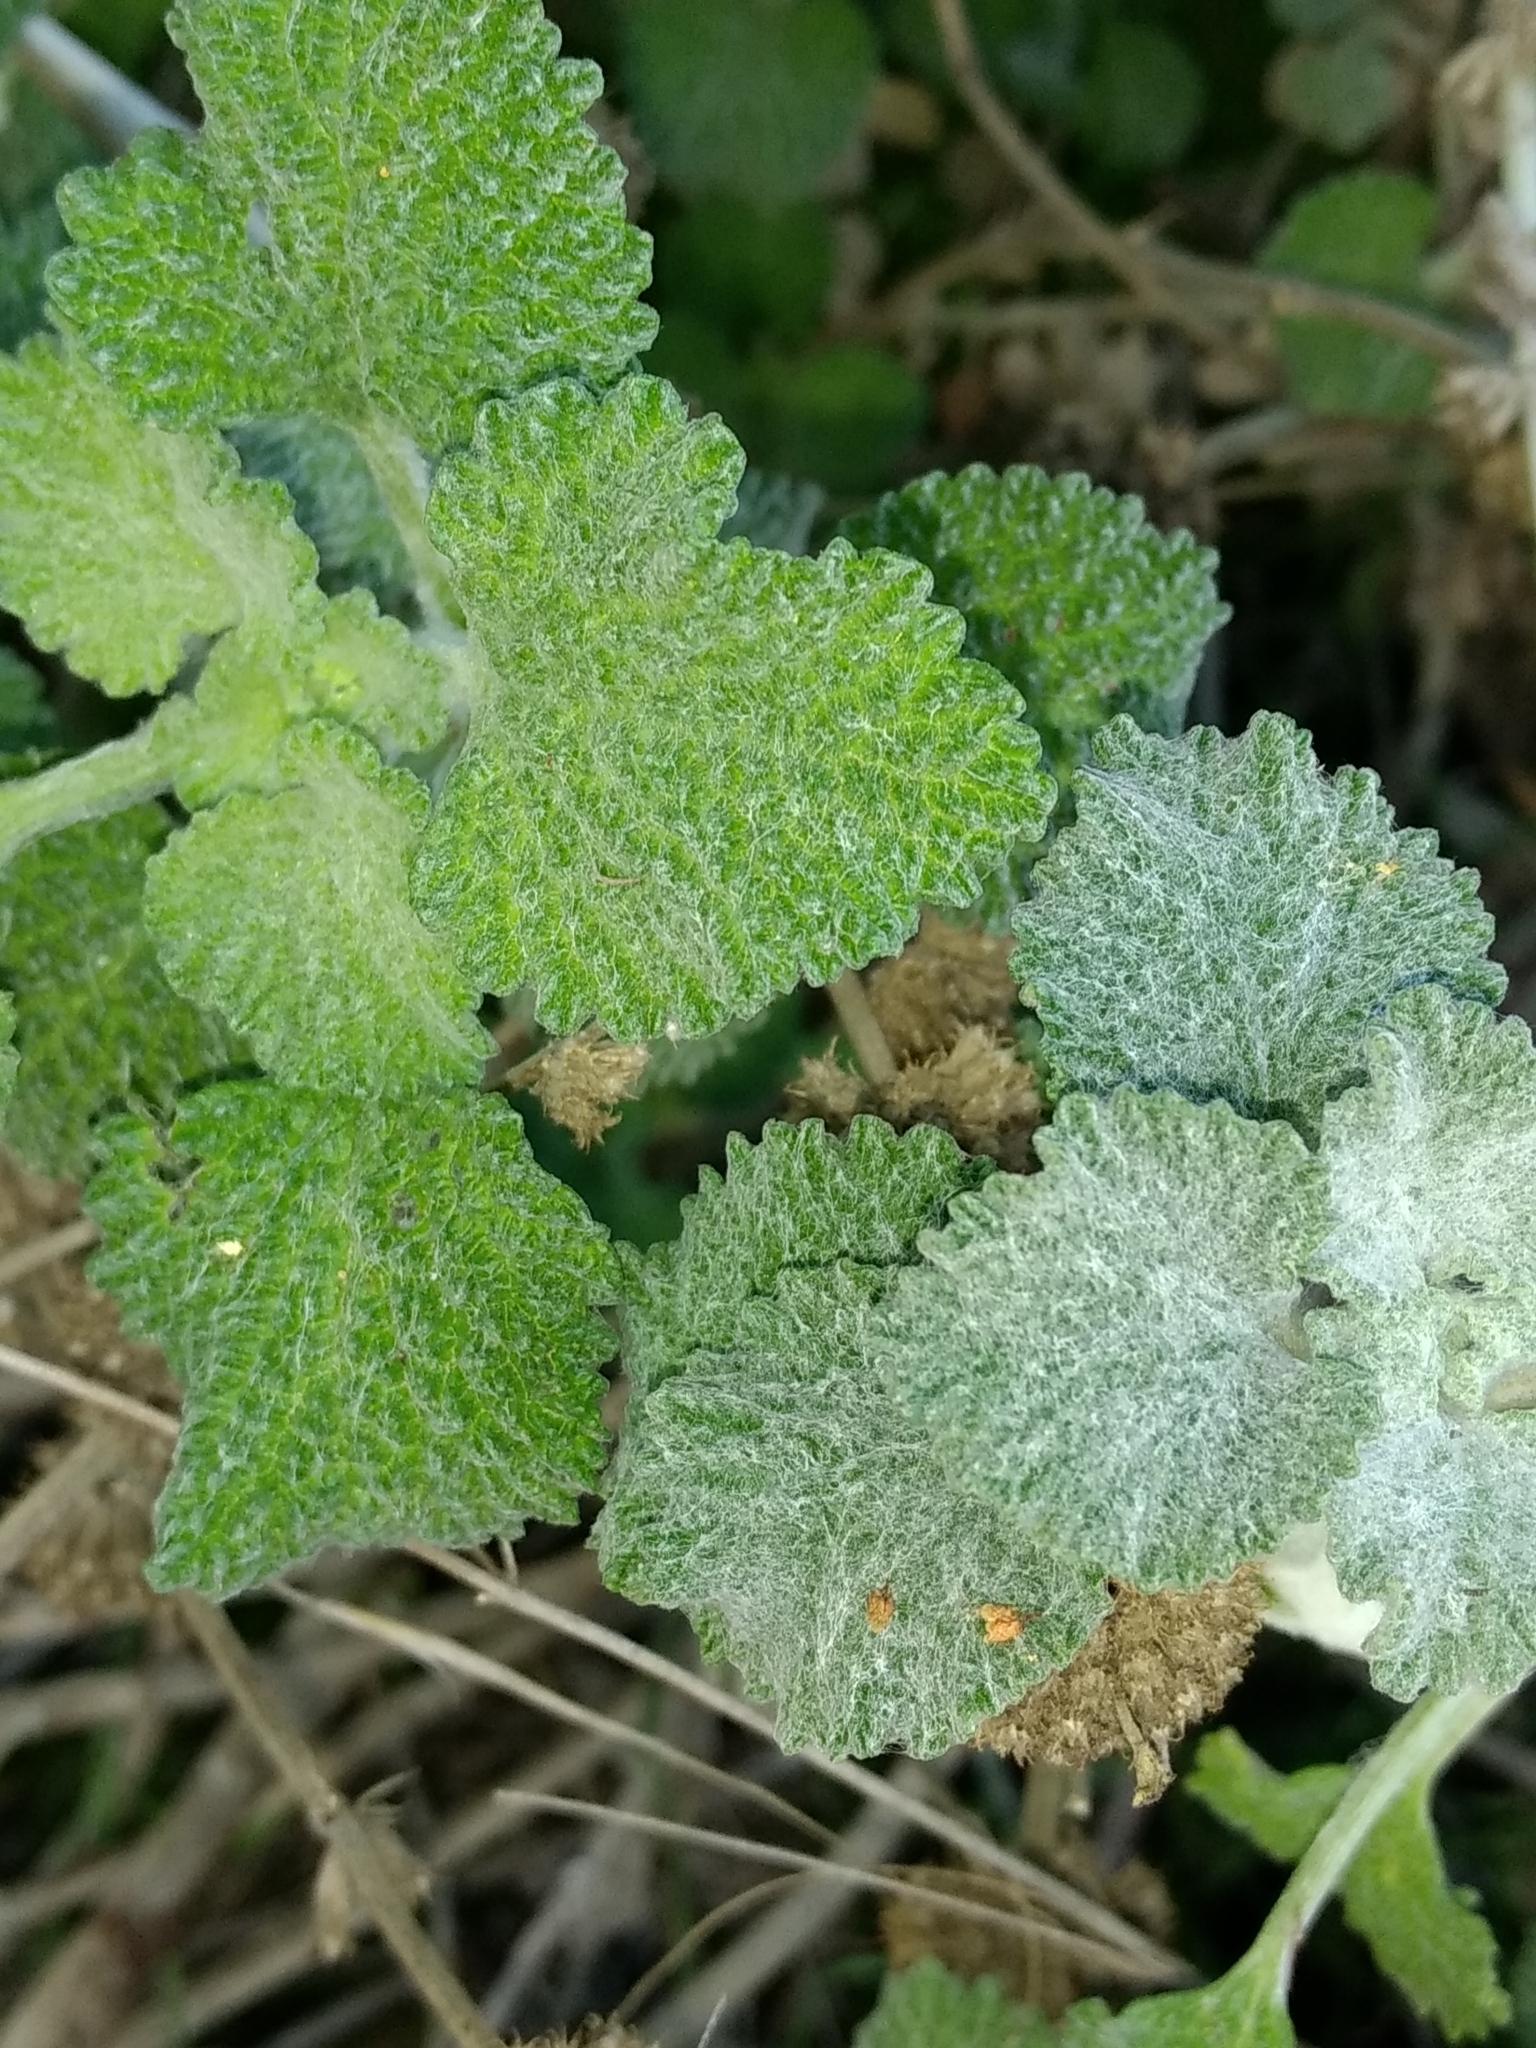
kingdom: Plantae
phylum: Tracheophyta
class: Magnoliopsida
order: Lamiales
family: Lamiaceae
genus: Marrubium
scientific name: Marrubium vulgare
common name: Horehound
